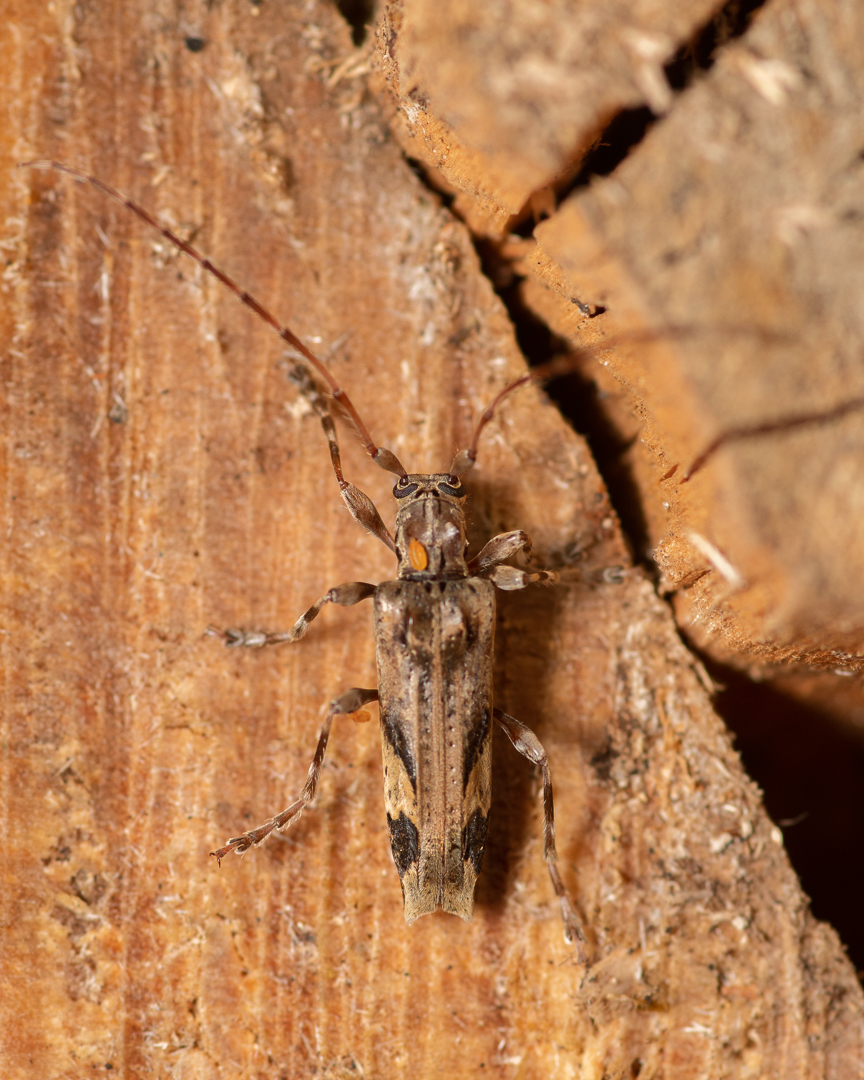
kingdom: Animalia
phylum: Arthropoda
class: Insecta
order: Coleoptera
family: Cerambycidae
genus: Neocolobura
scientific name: Neocolobura alboplagiata
